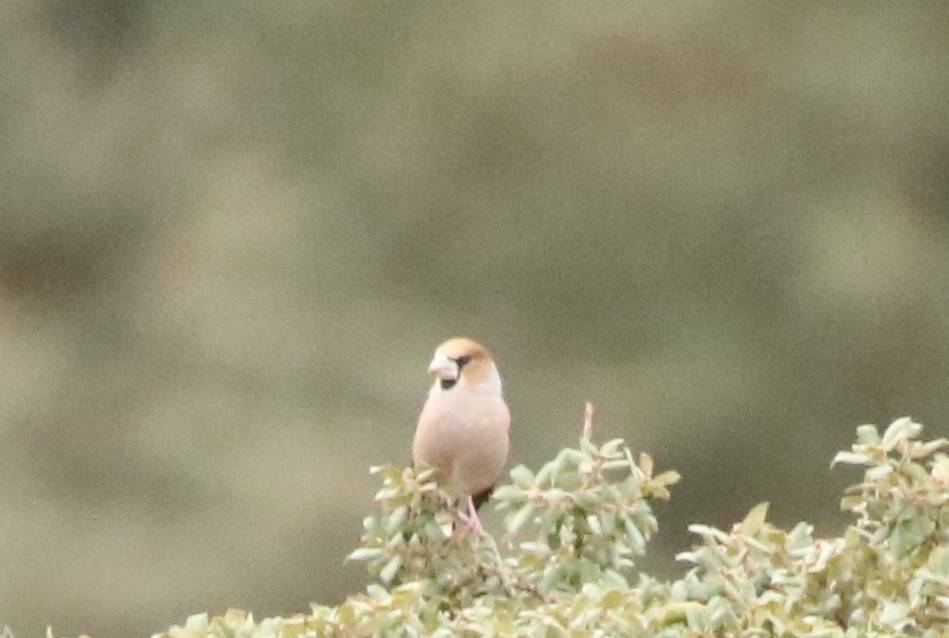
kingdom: Animalia
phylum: Chordata
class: Aves
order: Passeriformes
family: Fringillidae
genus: Coccothraustes
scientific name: Coccothraustes coccothraustes
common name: Hawfinch
